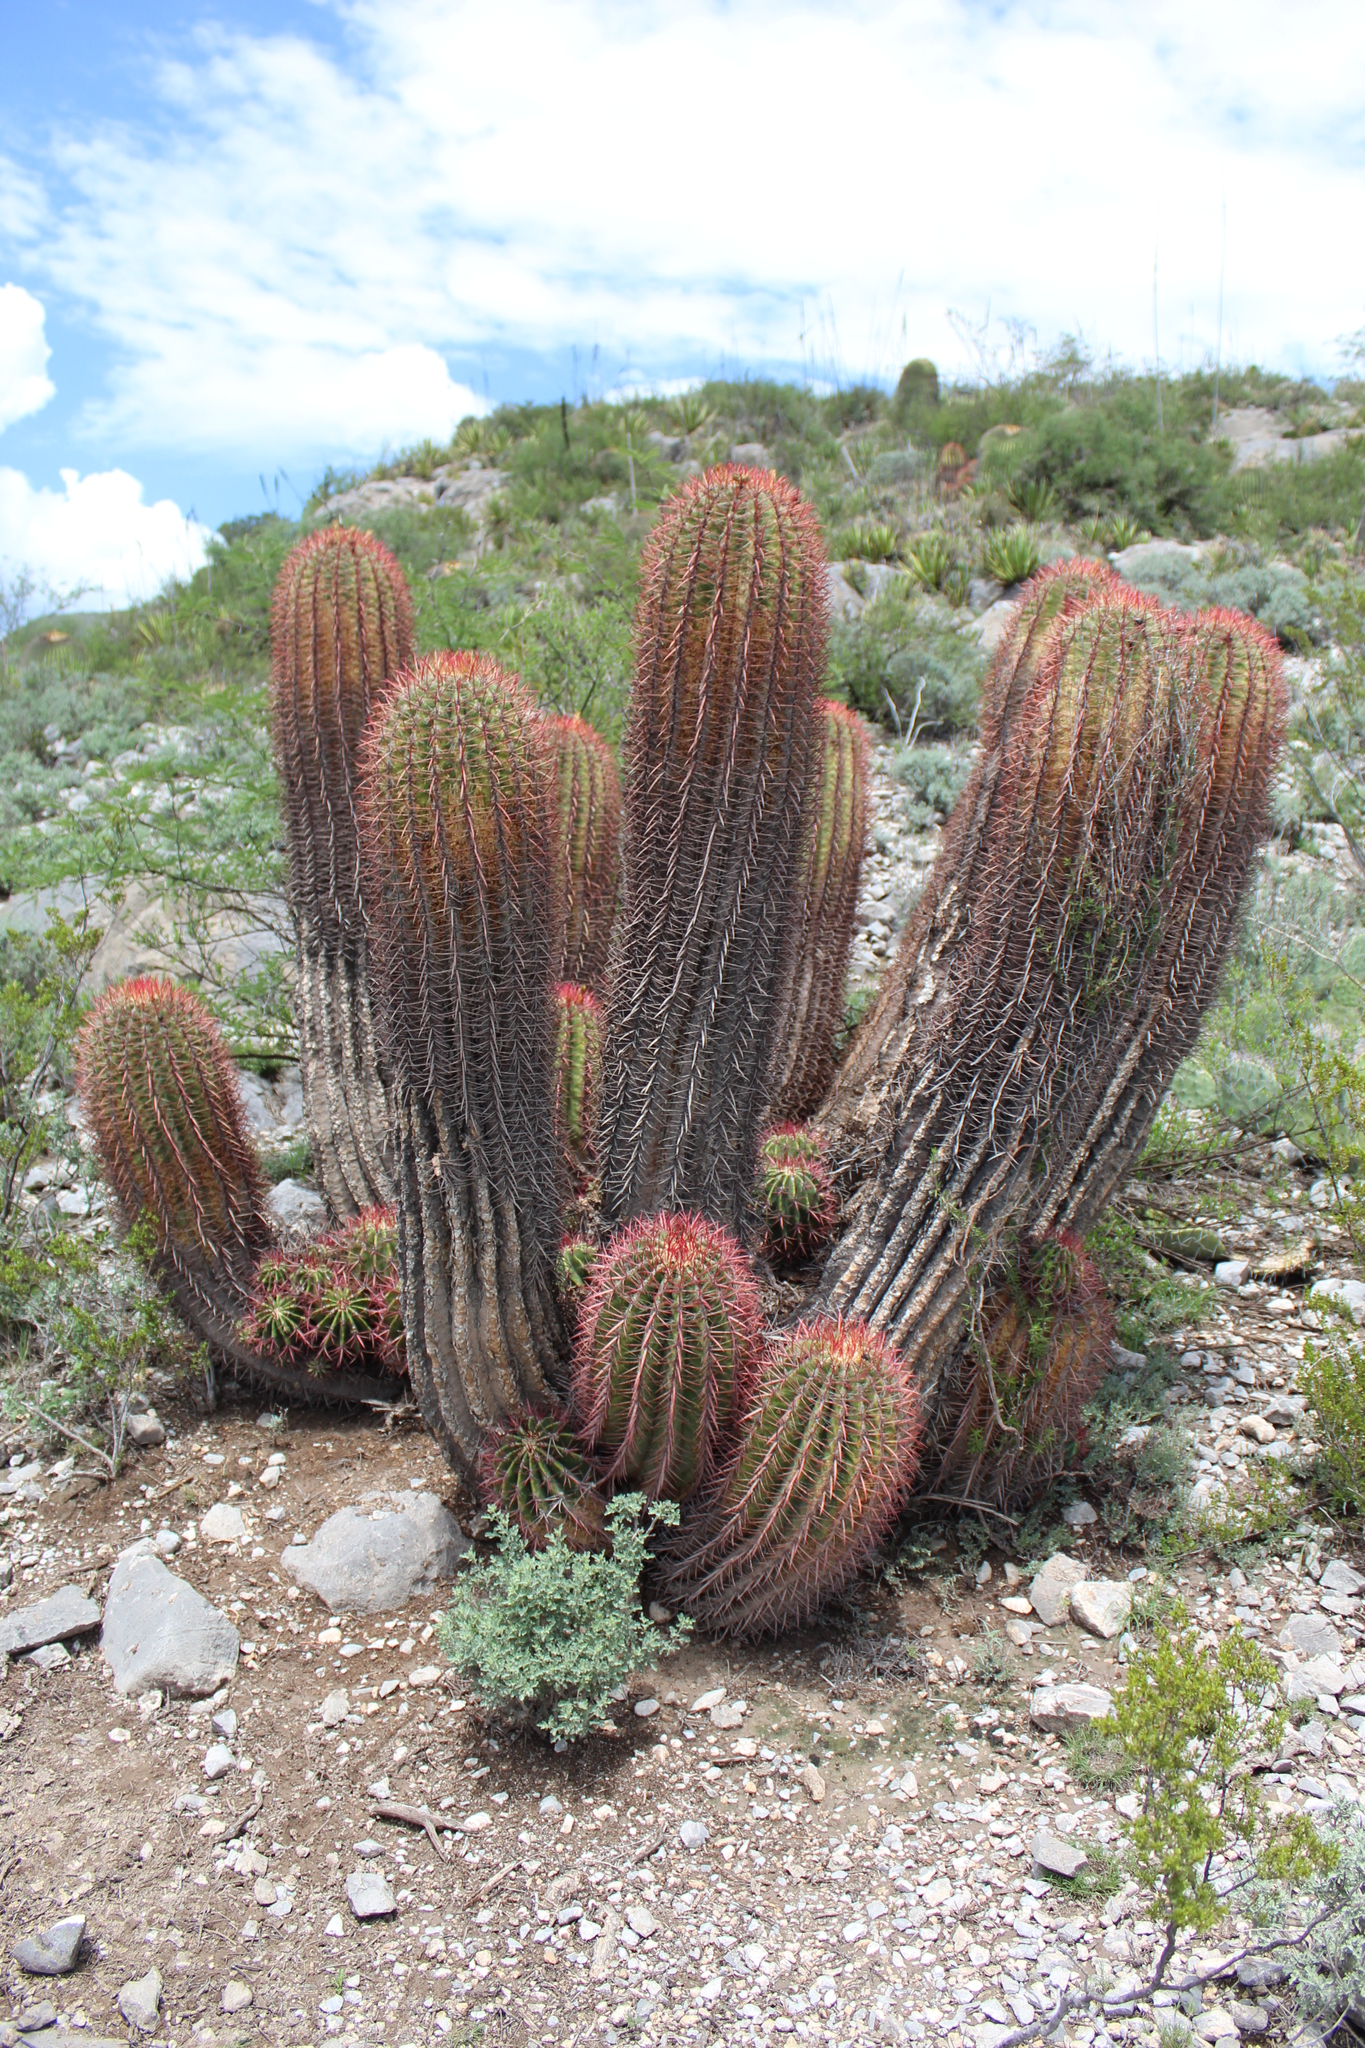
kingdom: Plantae
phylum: Tracheophyta
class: Magnoliopsida
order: Caryophyllales
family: Cactaceae
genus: Ferocactus
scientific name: Ferocactus pilosus
